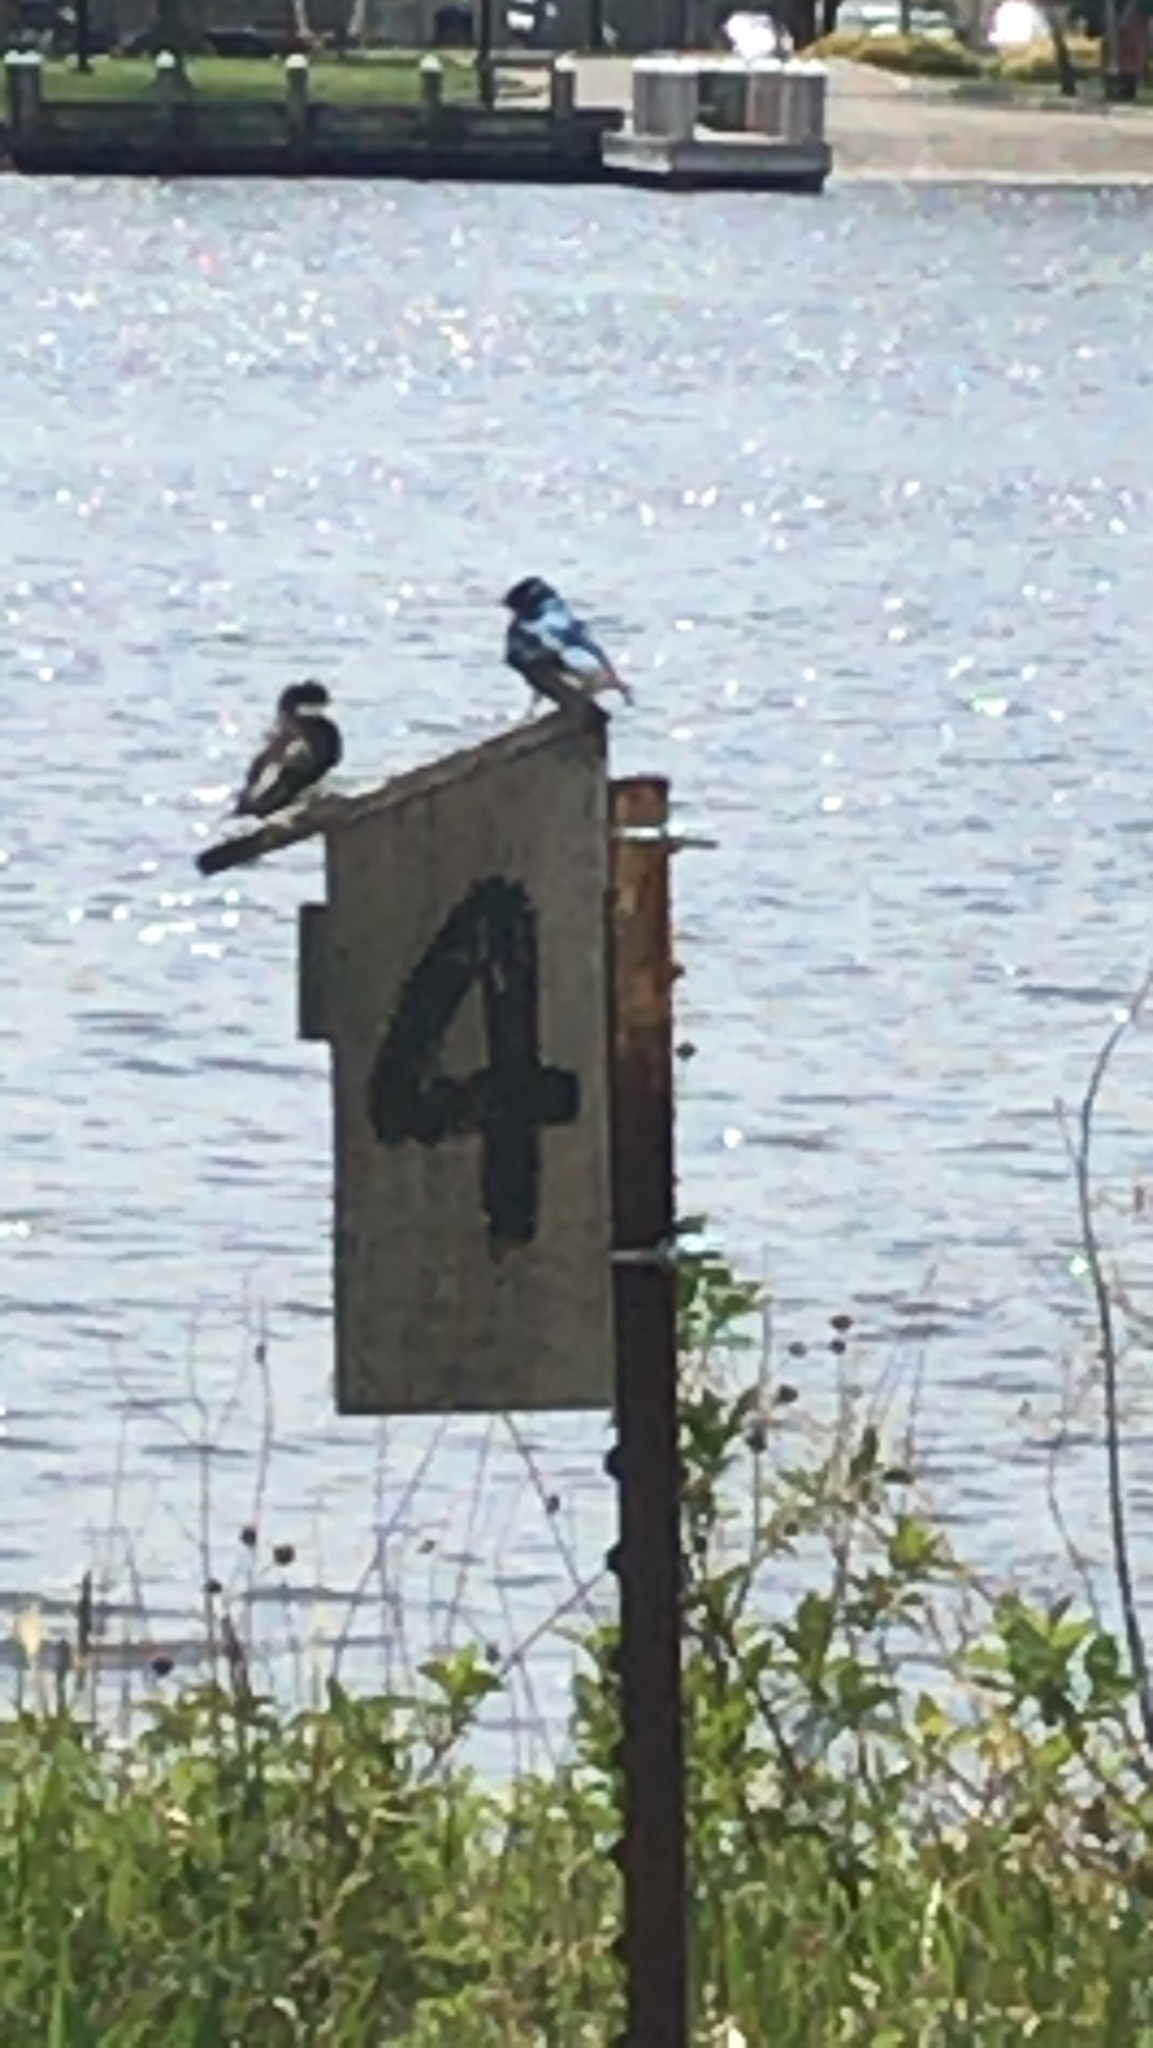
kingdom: Animalia
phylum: Chordata
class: Aves
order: Passeriformes
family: Hirundinidae
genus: Tachycineta
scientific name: Tachycineta bicolor
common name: Tree swallow
